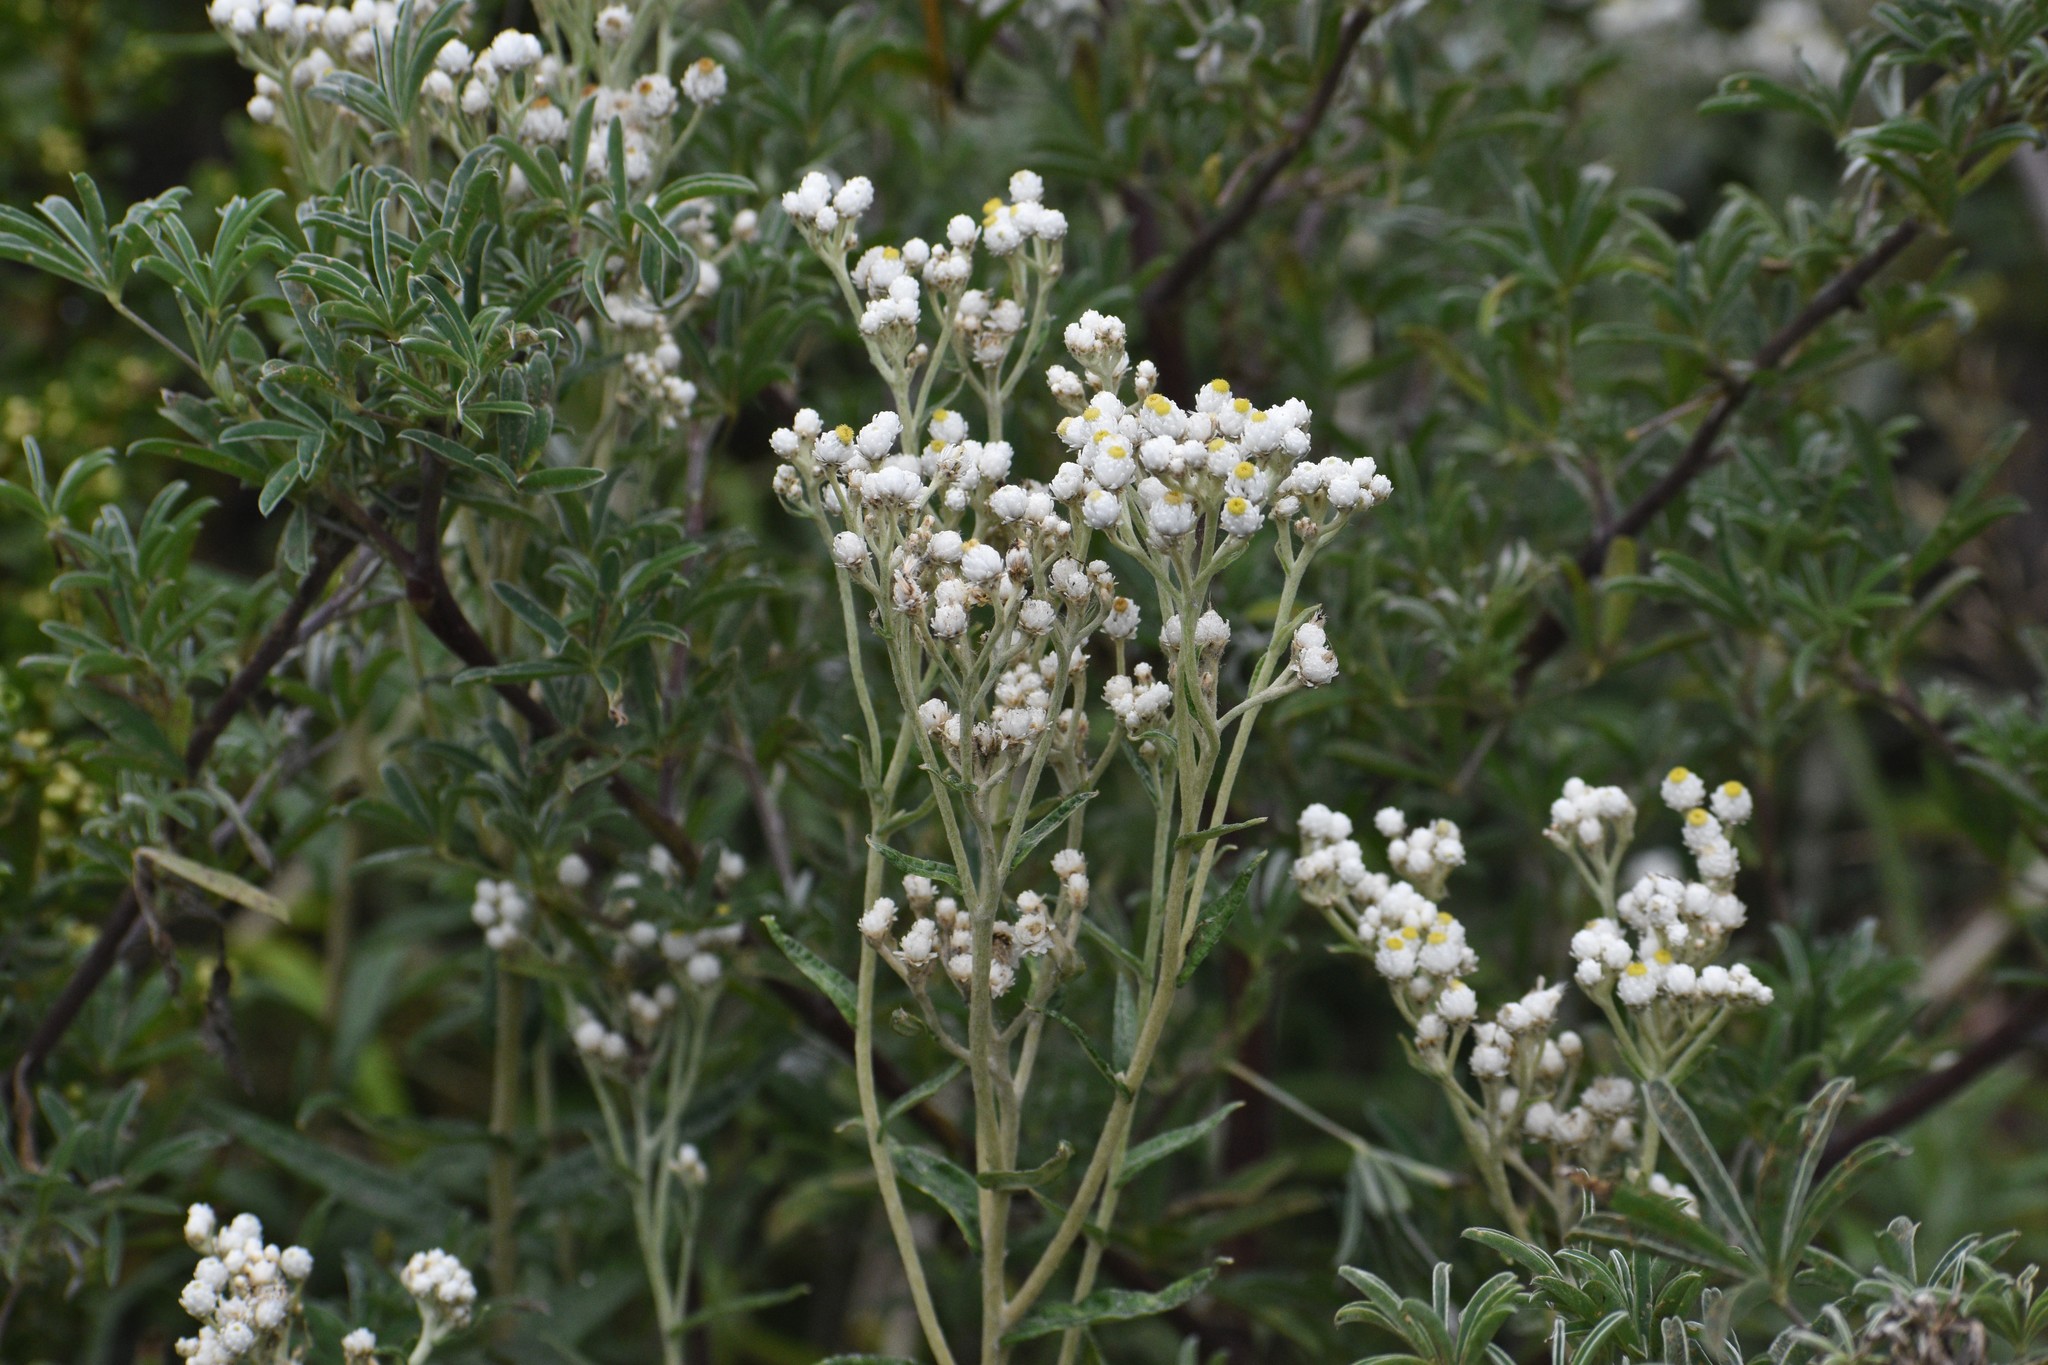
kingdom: Plantae
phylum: Tracheophyta
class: Magnoliopsida
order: Asterales
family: Asteraceae
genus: Anaphalis
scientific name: Anaphalis margaritacea
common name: Pearly everlasting
